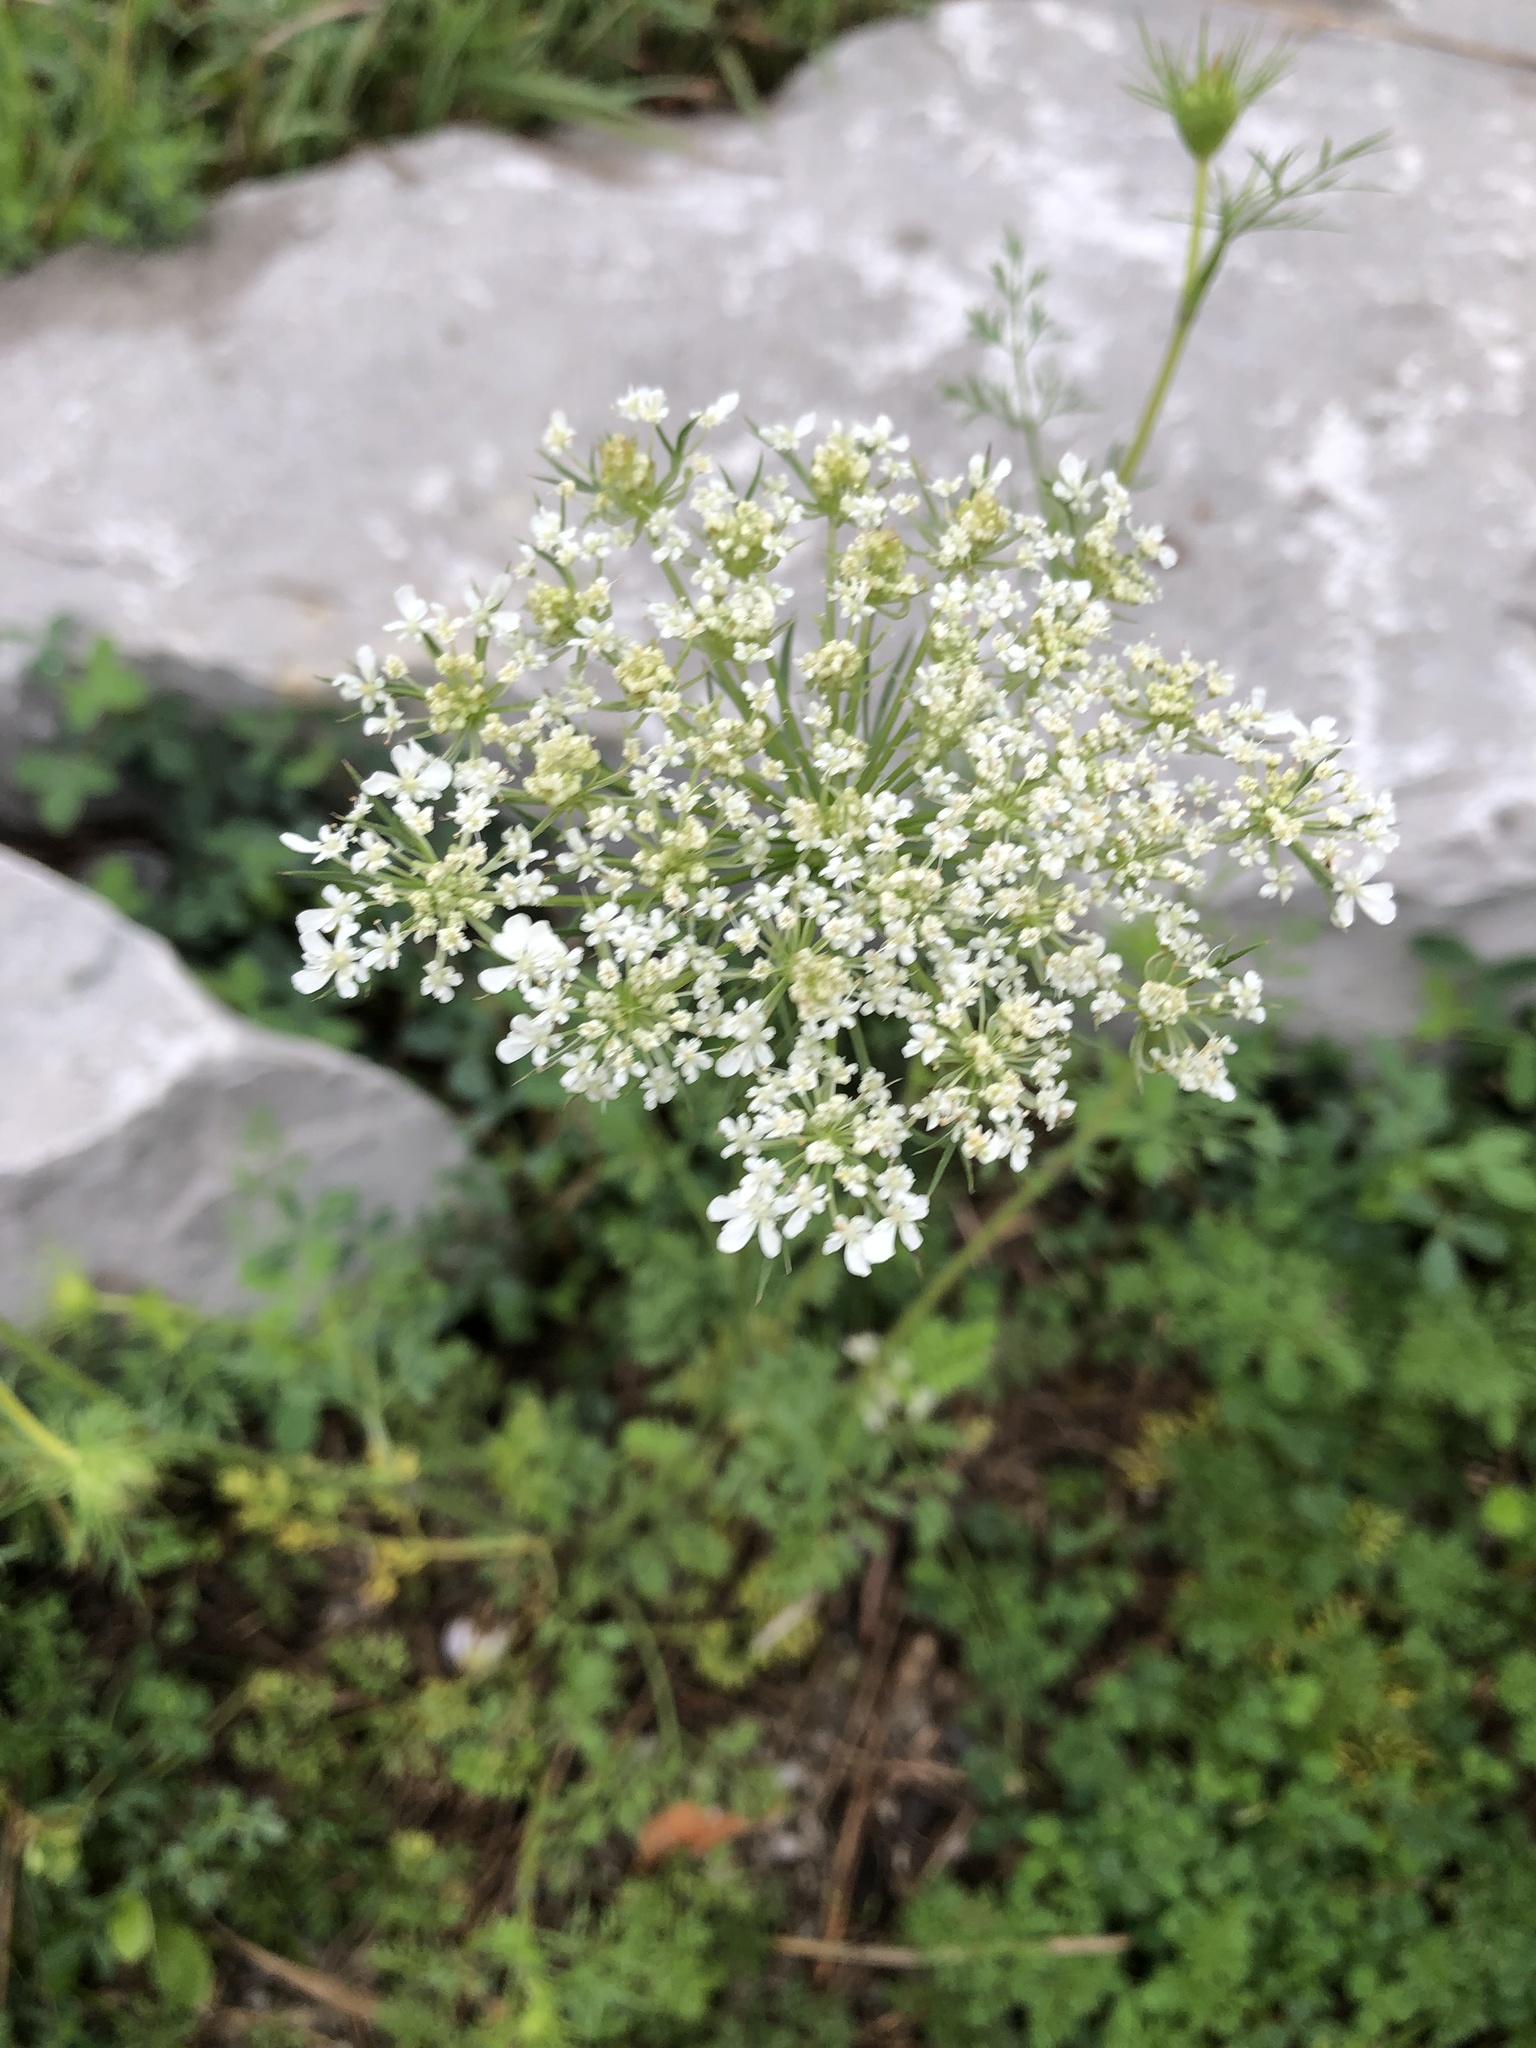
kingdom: Plantae
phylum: Tracheophyta
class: Magnoliopsida
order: Apiales
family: Apiaceae
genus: Daucus
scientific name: Daucus carota
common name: Wild carrot
